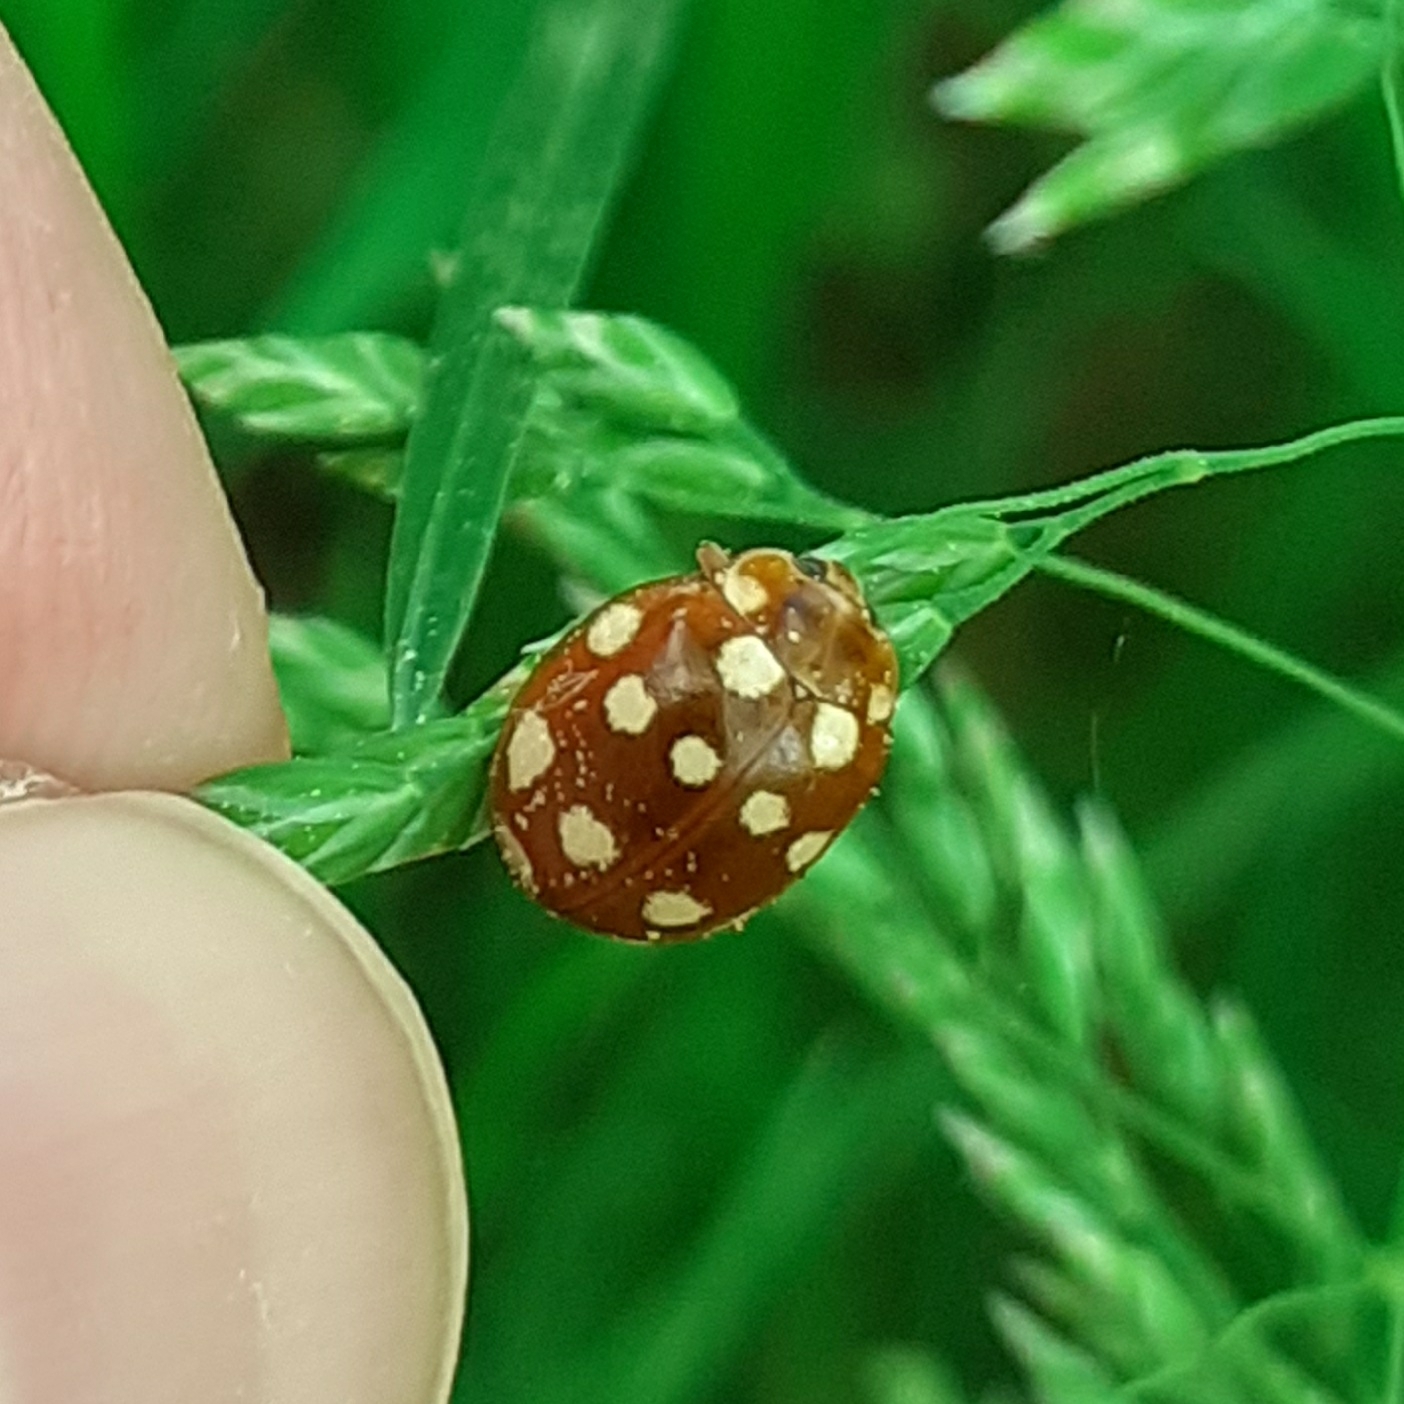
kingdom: Animalia
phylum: Arthropoda
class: Insecta
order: Coleoptera
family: Coccinellidae
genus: Calvia
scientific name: Calvia quatuordecimguttata
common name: Cream-spot ladybird
